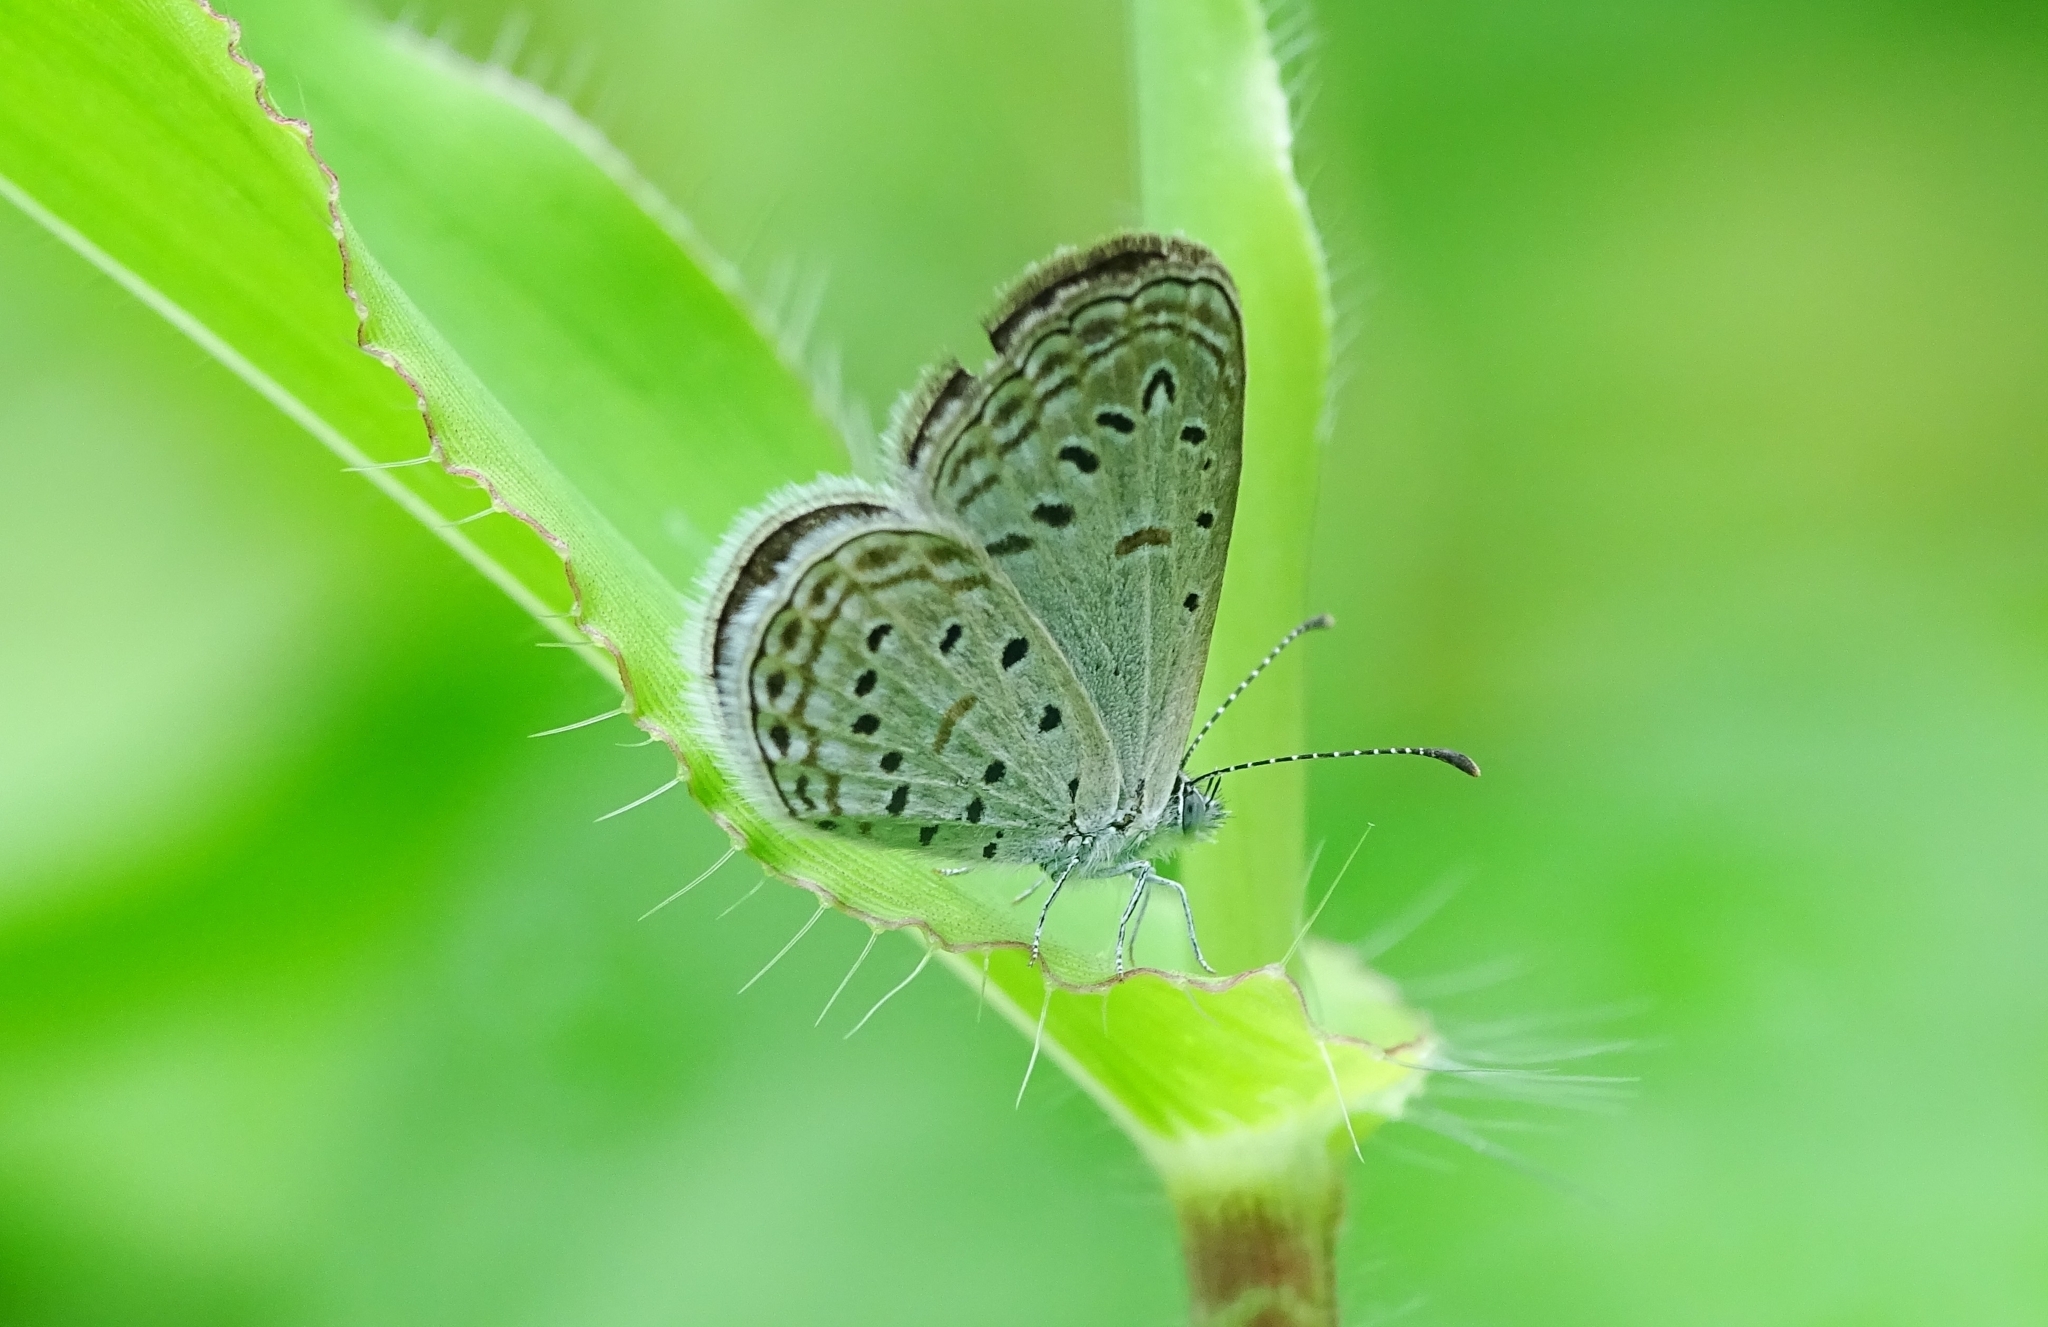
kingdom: Animalia
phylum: Arthropoda
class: Insecta
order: Lepidoptera
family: Lycaenidae
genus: Zizula
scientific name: Zizula hylax
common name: Gaika blue
